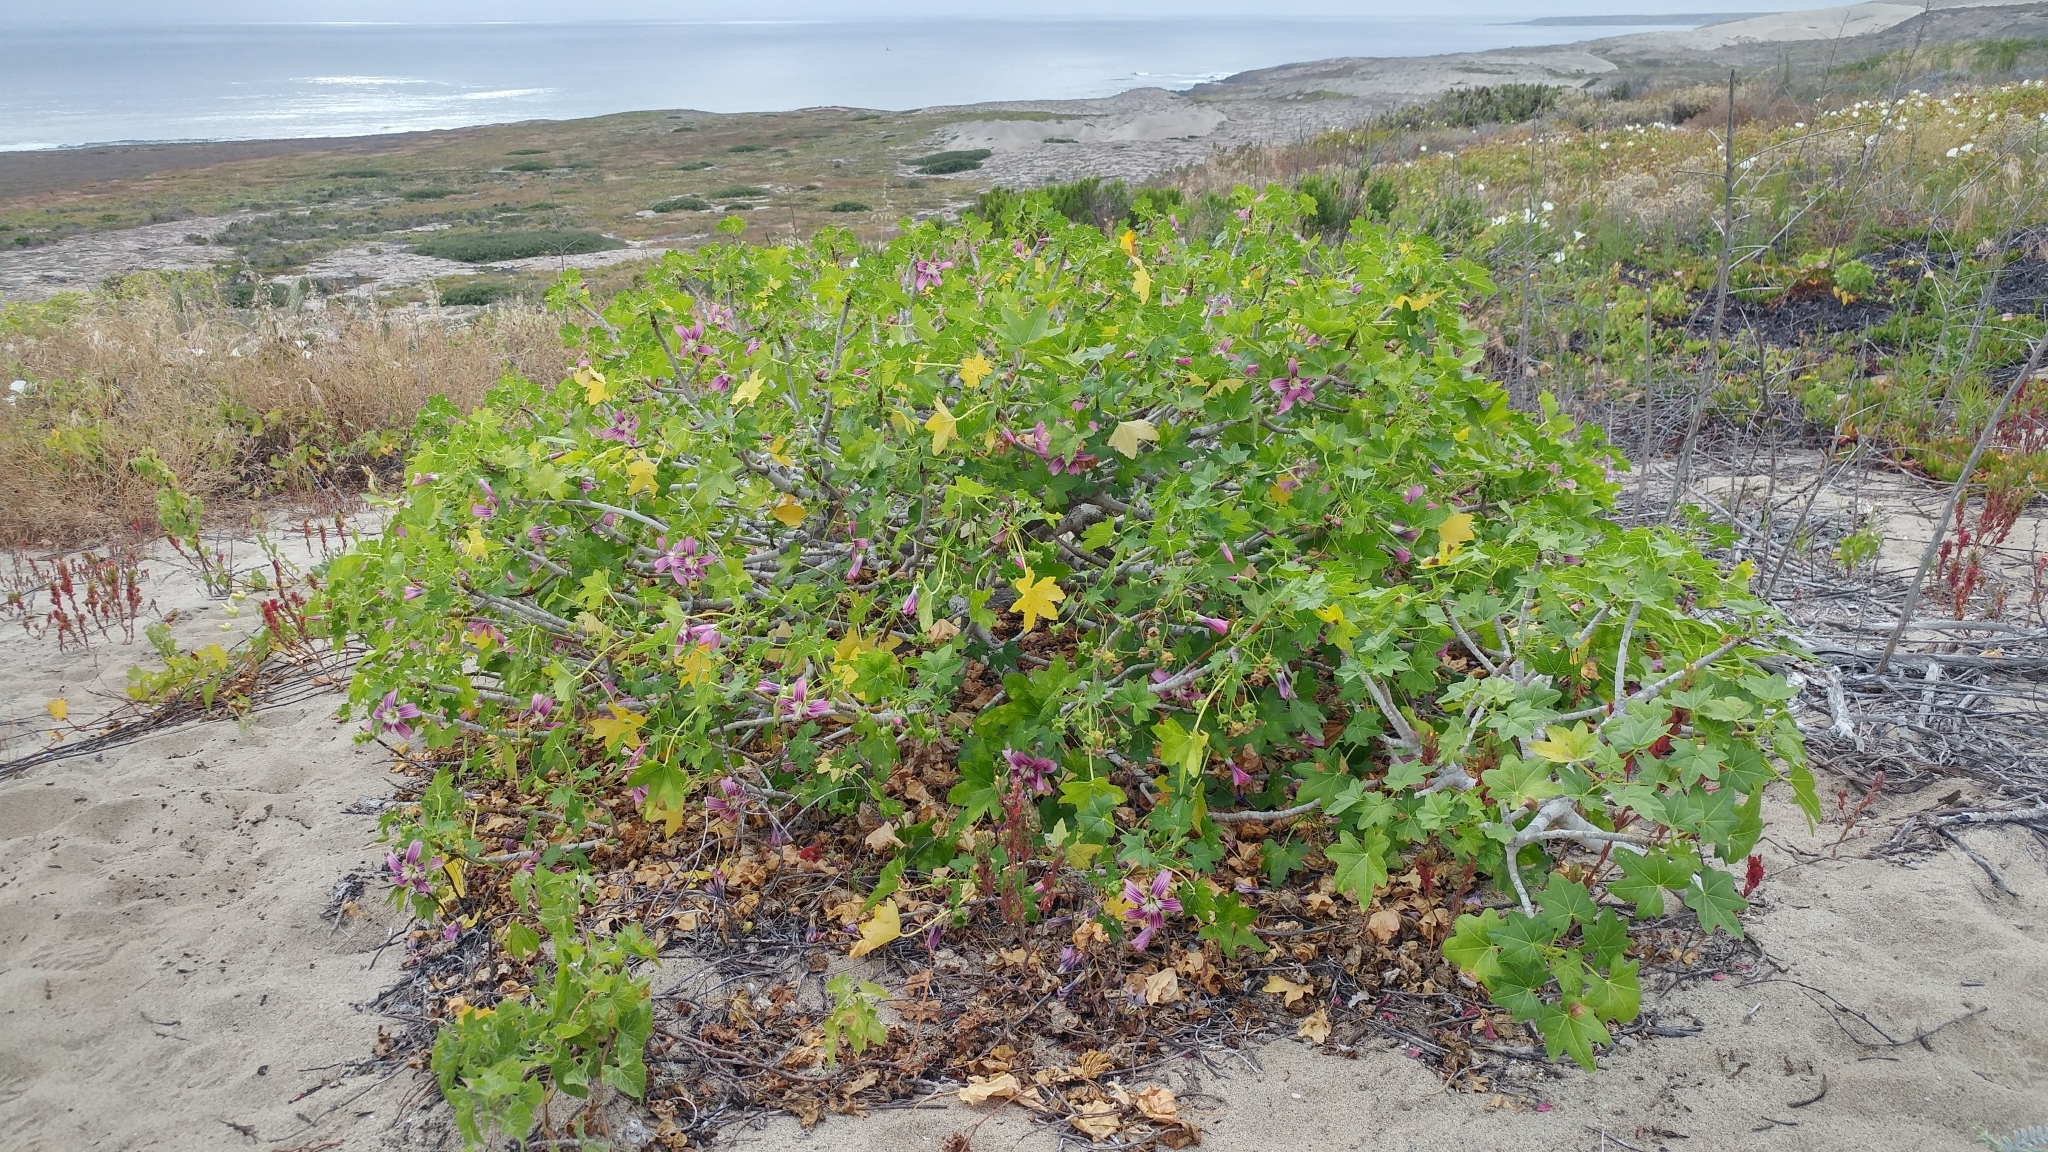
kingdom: Plantae
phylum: Tracheophyta
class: Magnoliopsida
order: Malvales
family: Malvaceae
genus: Malva
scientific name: Malva assurgentiflora
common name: Island mallow
